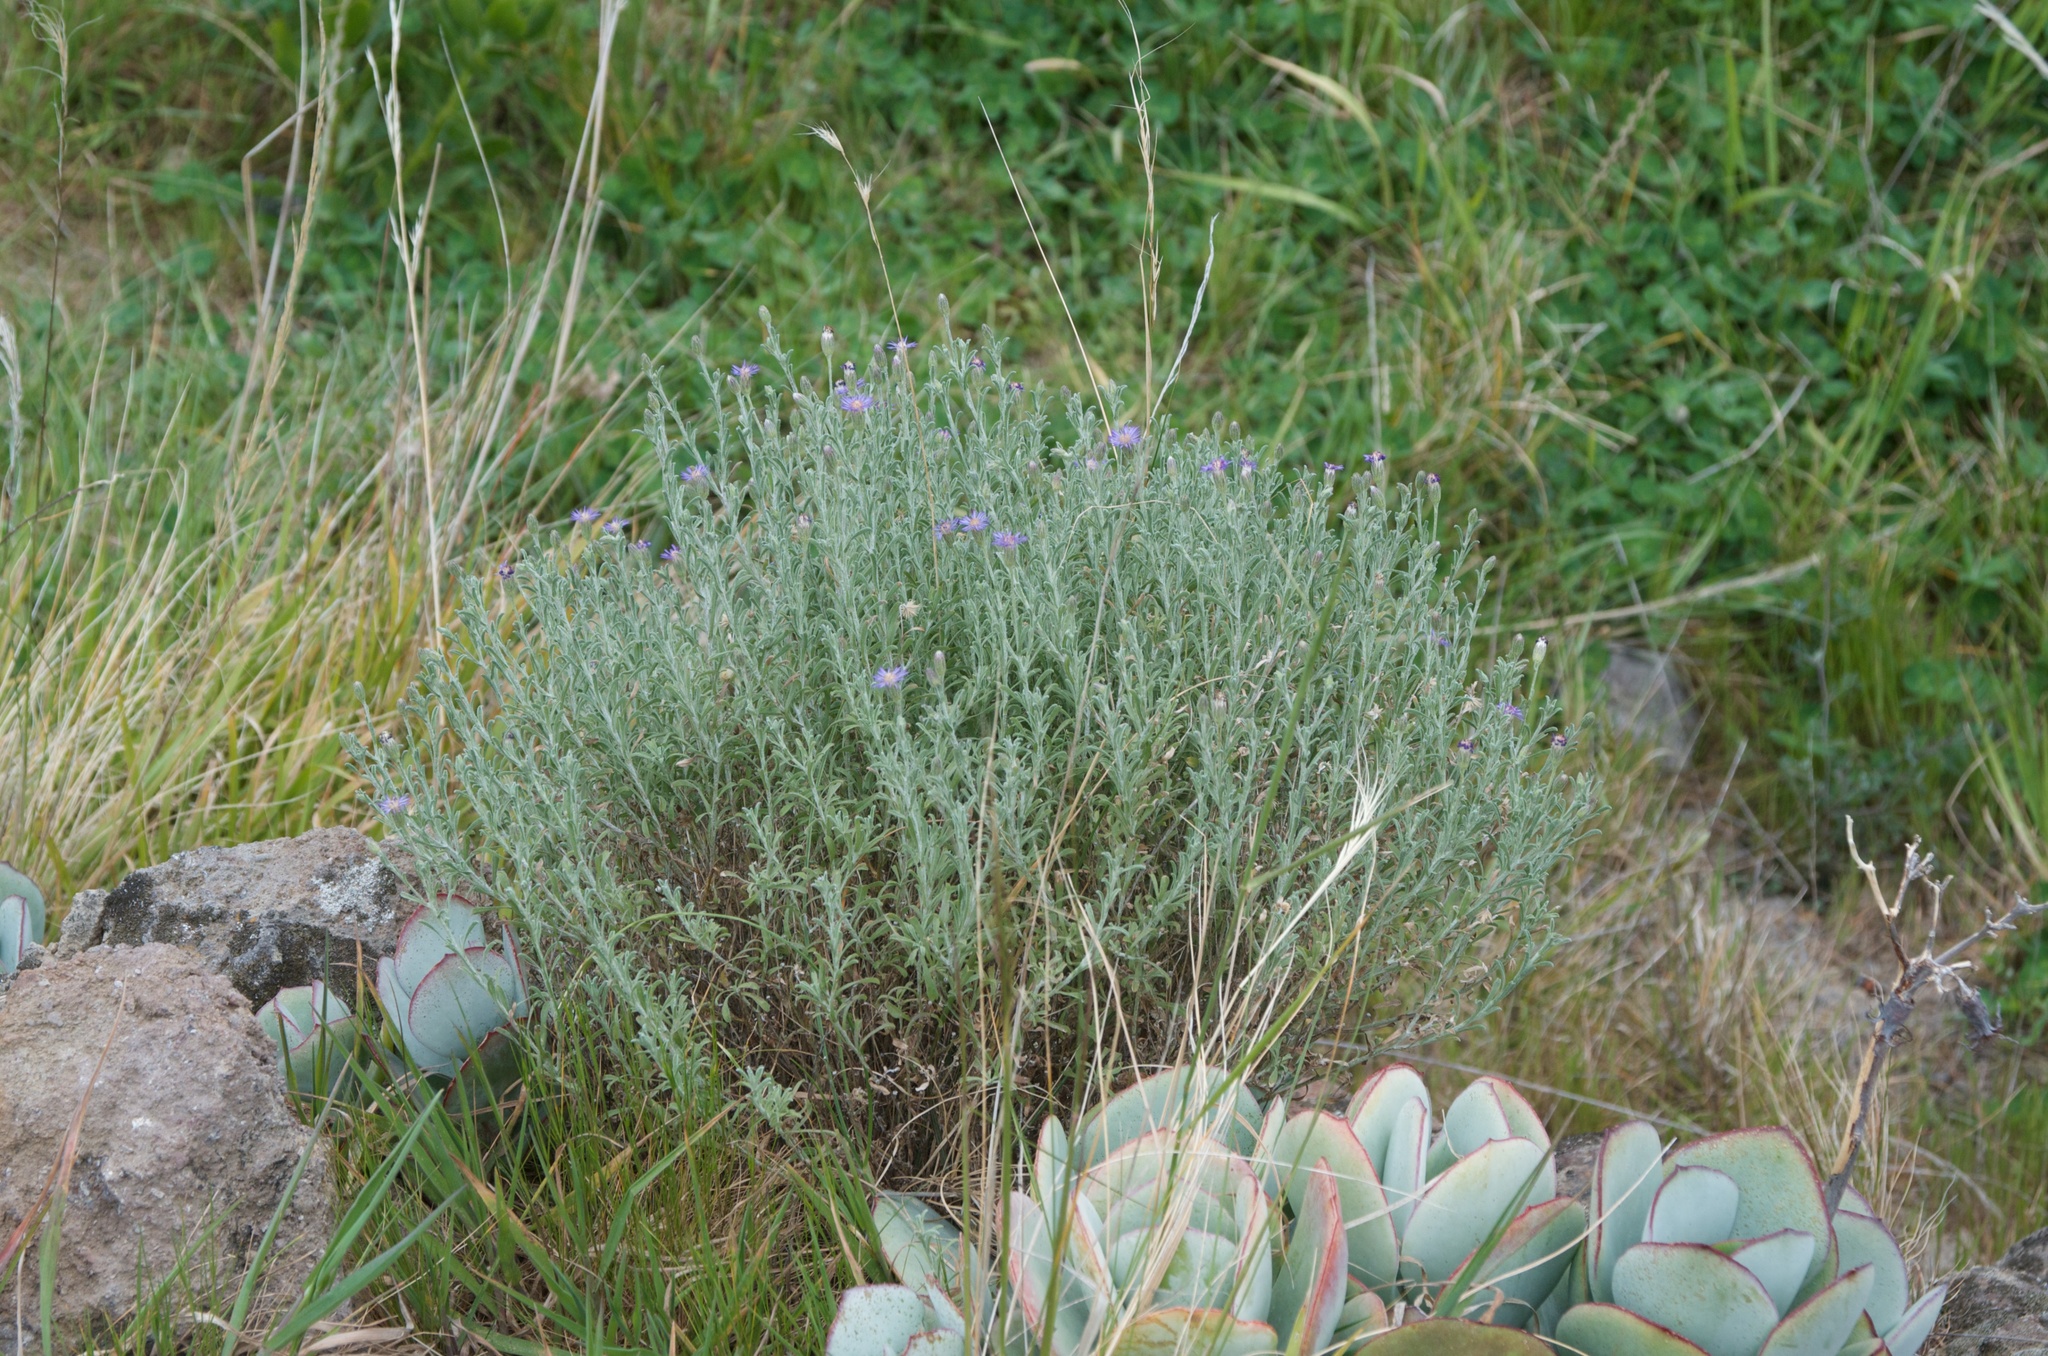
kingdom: Plantae
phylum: Tracheophyta
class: Magnoliopsida
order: Asterales
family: Asteraceae
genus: Vittadinia
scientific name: Vittadinia gracilis
